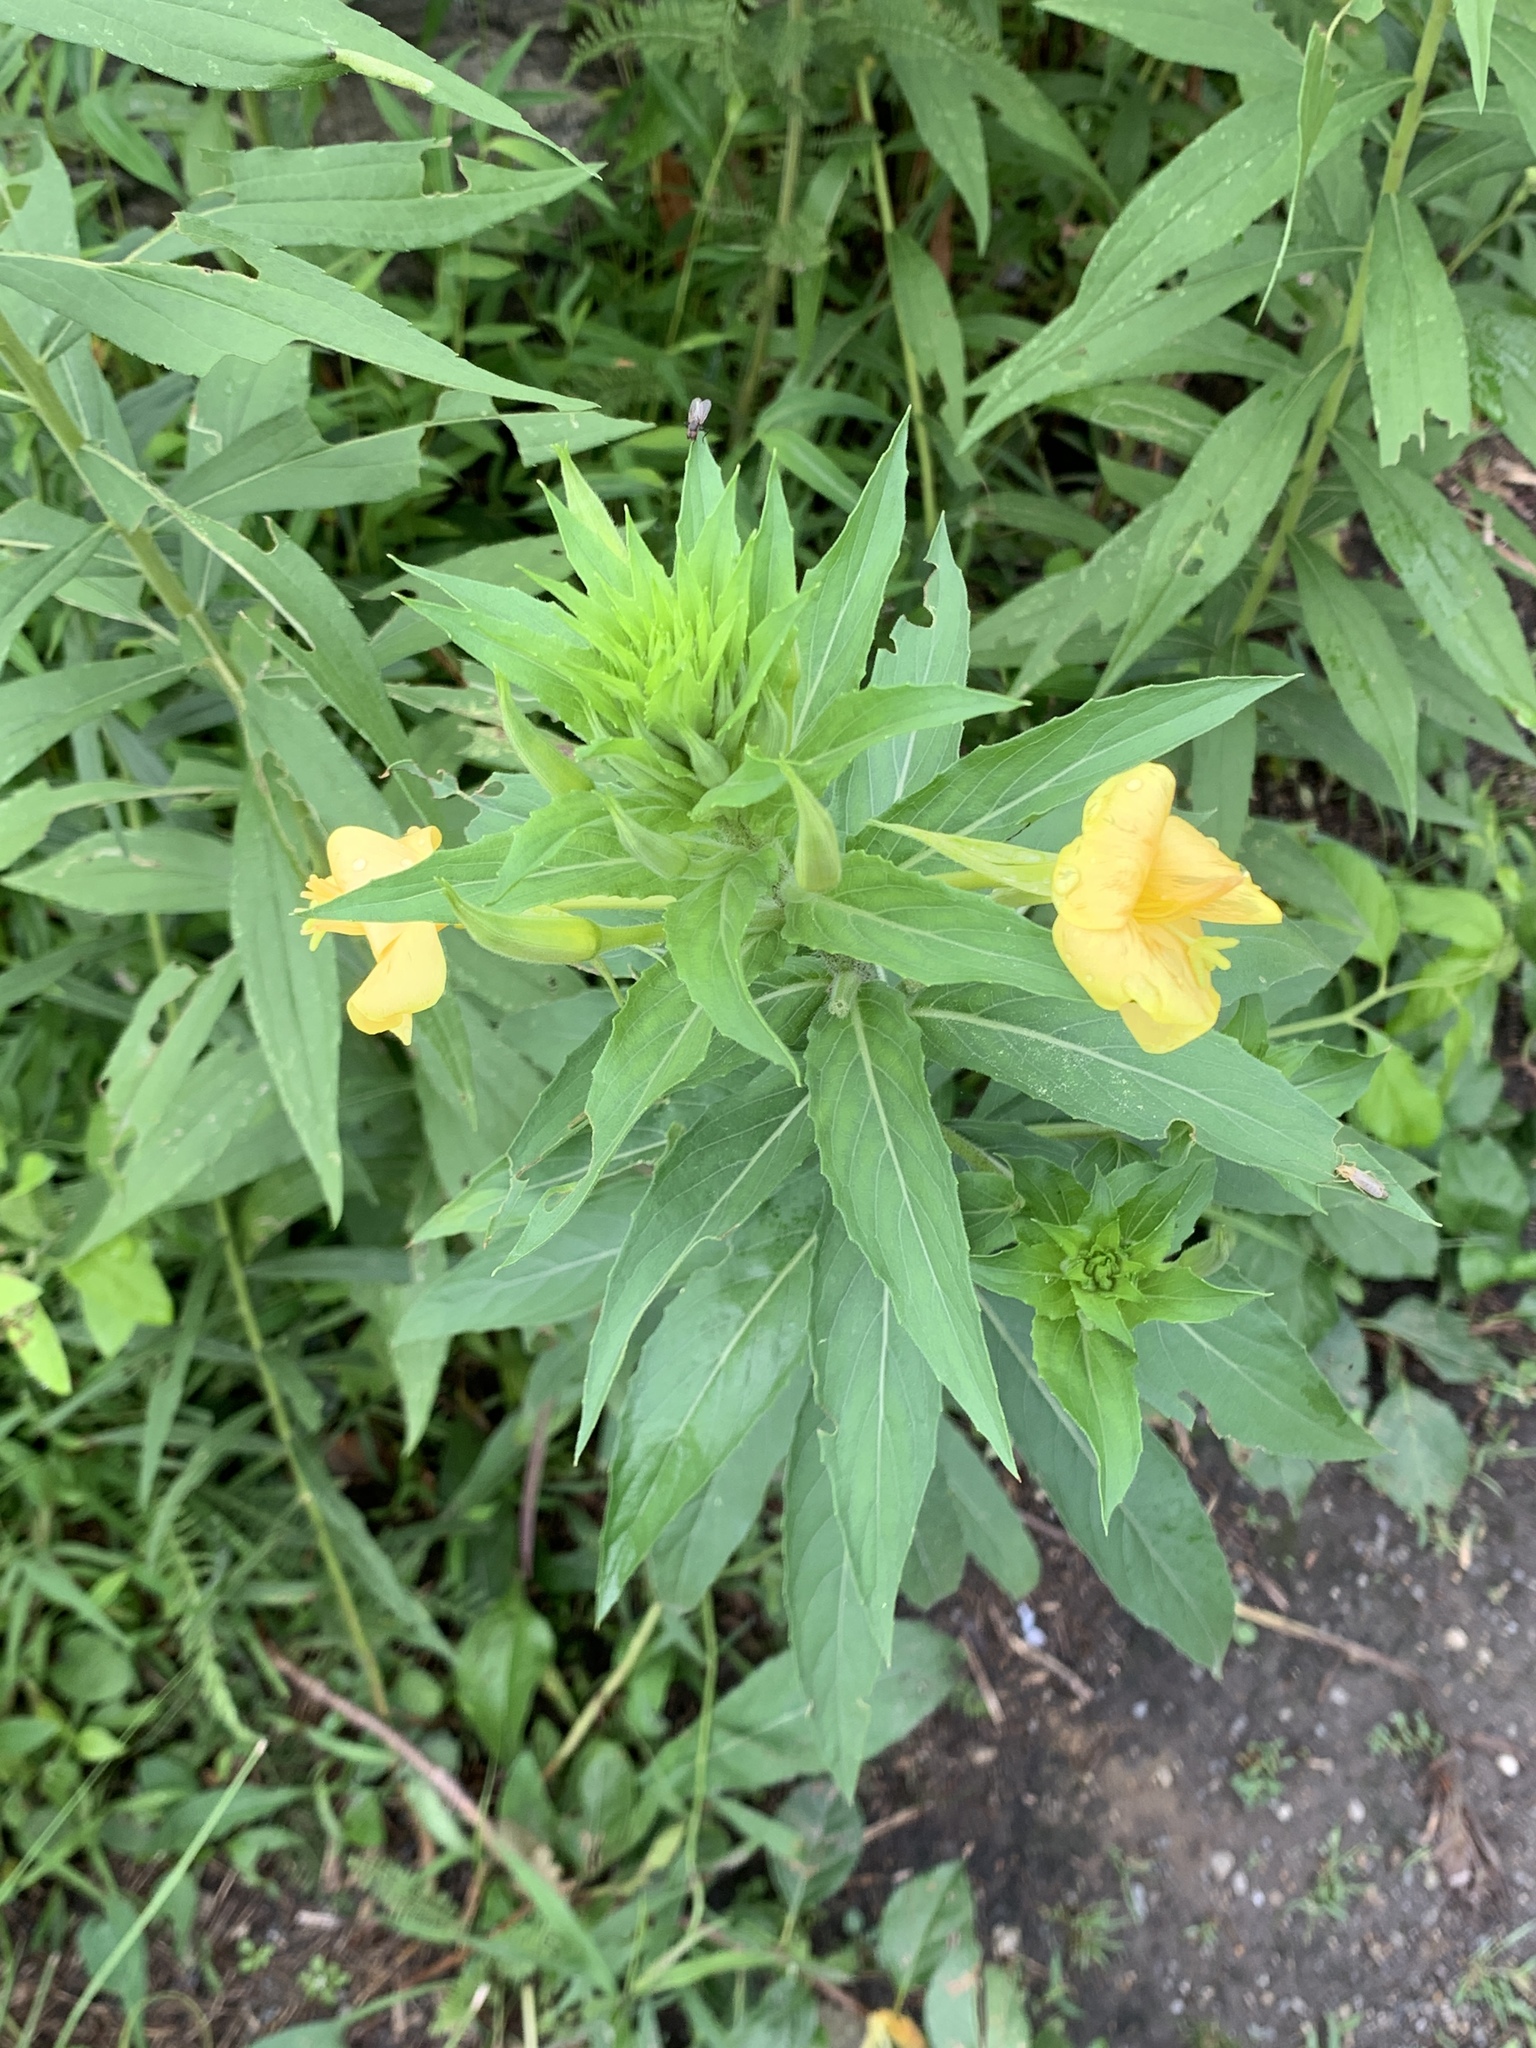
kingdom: Plantae
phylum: Tracheophyta
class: Magnoliopsida
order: Myrtales
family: Onagraceae
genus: Oenothera
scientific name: Oenothera biennis
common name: Common evening-primrose
